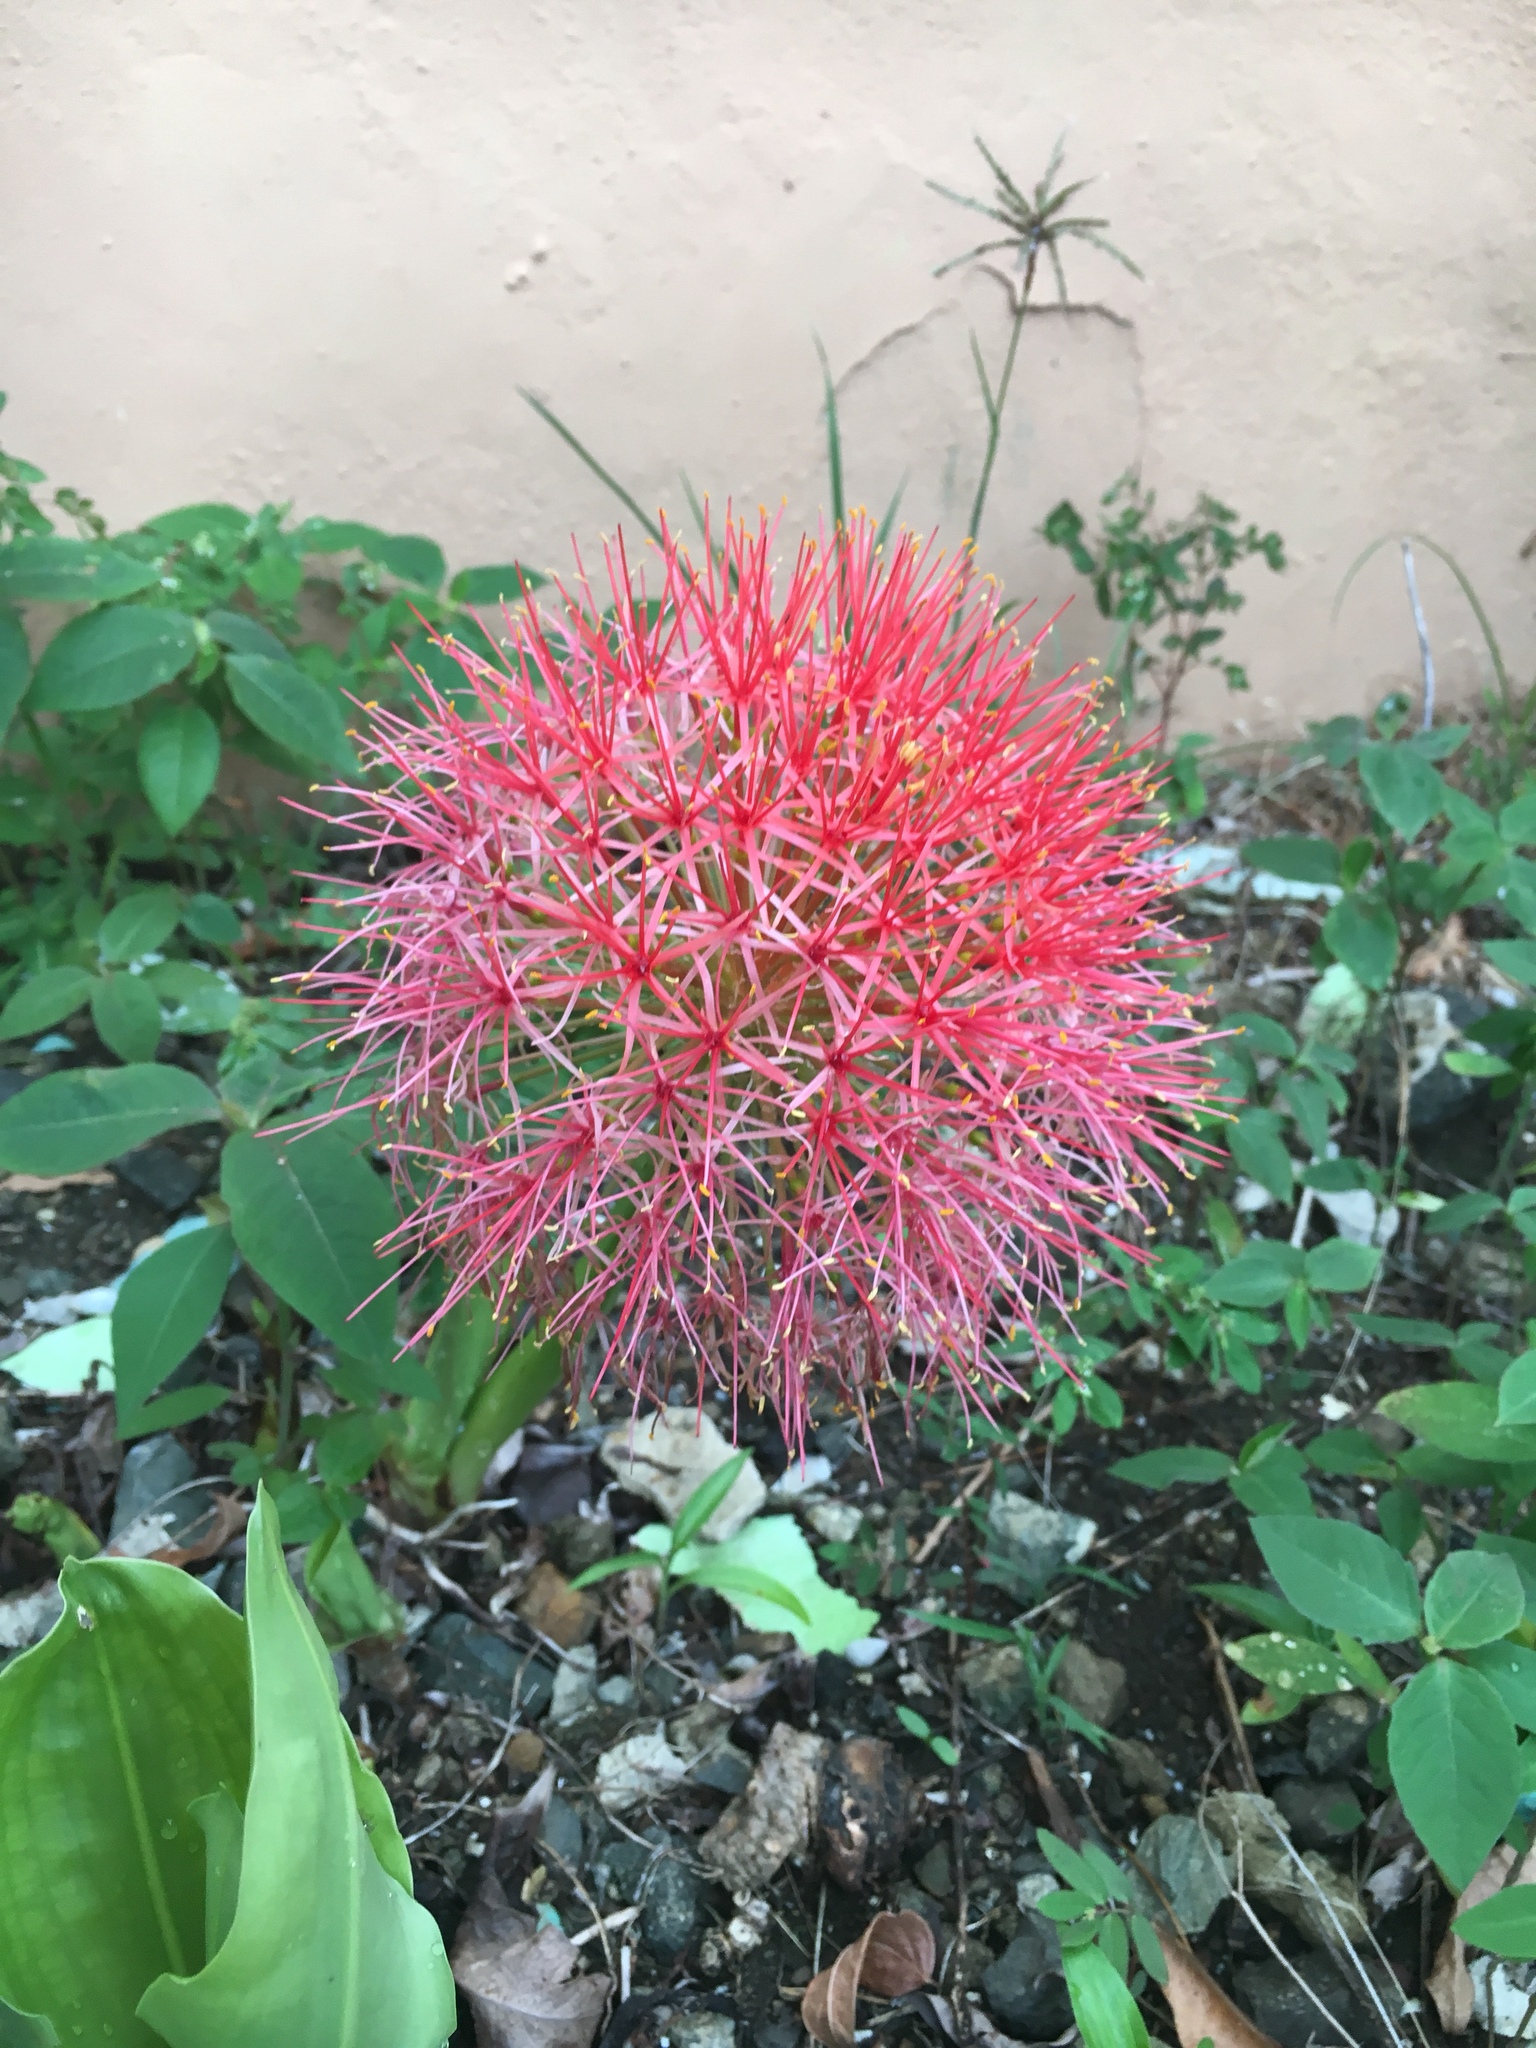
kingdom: Plantae
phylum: Tracheophyta
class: Liliopsida
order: Asparagales
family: Amaryllidaceae
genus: Scadoxus
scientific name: Scadoxus multiflorus
